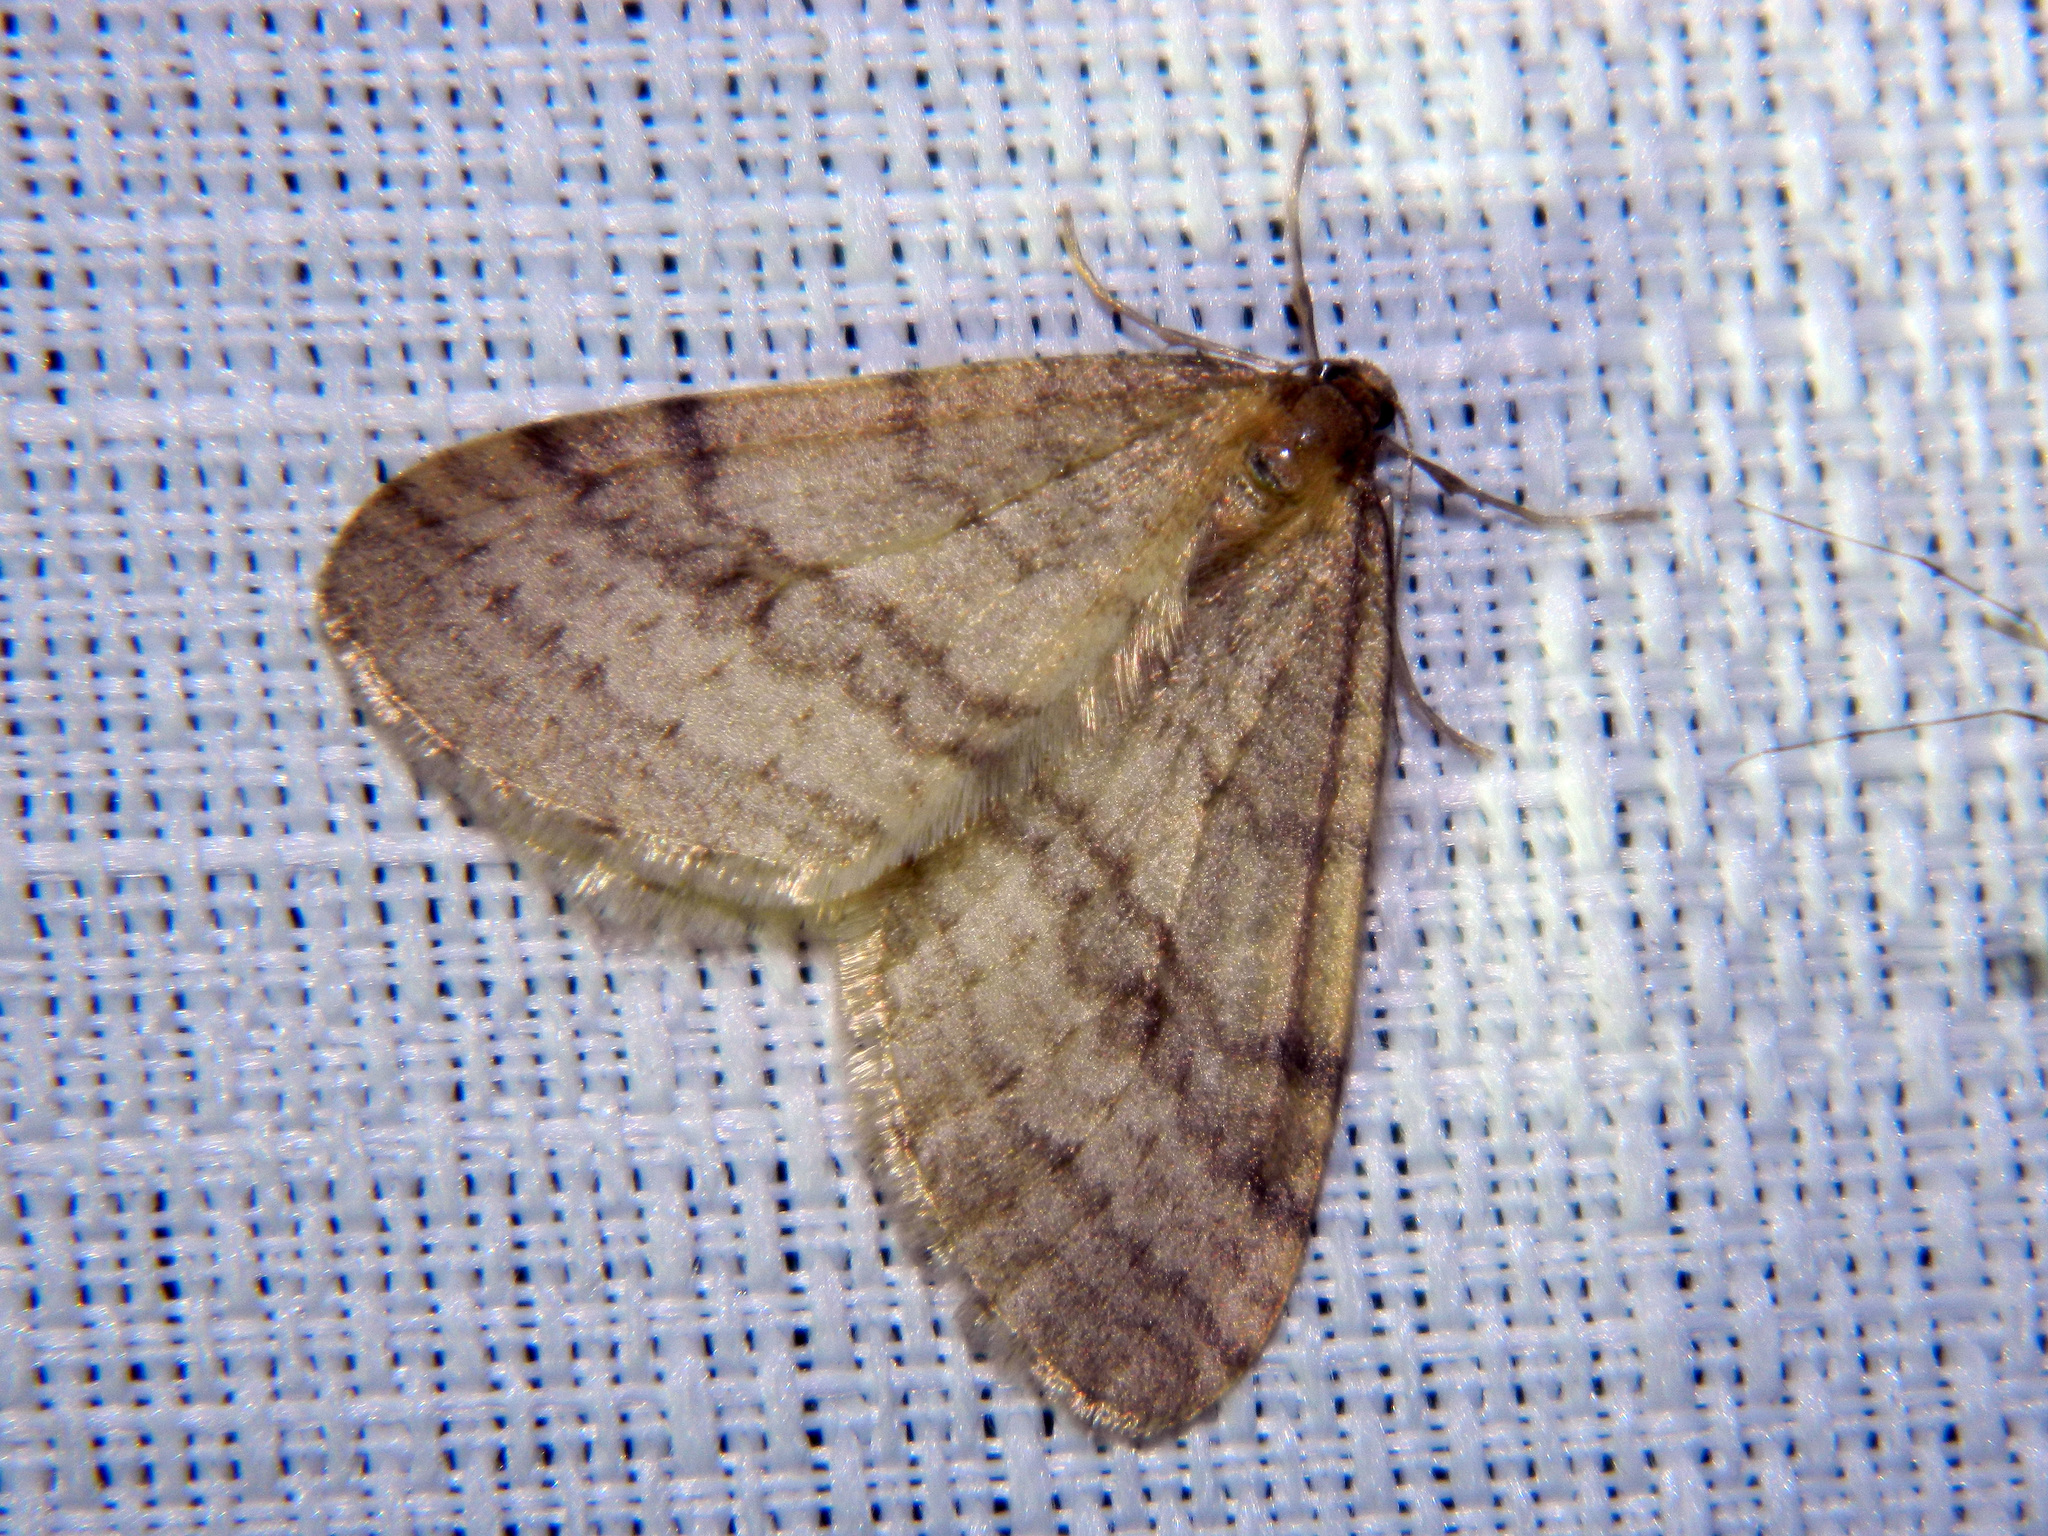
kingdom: Animalia
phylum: Arthropoda
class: Insecta
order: Lepidoptera
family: Geometridae
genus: Operophtera
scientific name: Operophtera bruceata
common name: Bruce spanworm
